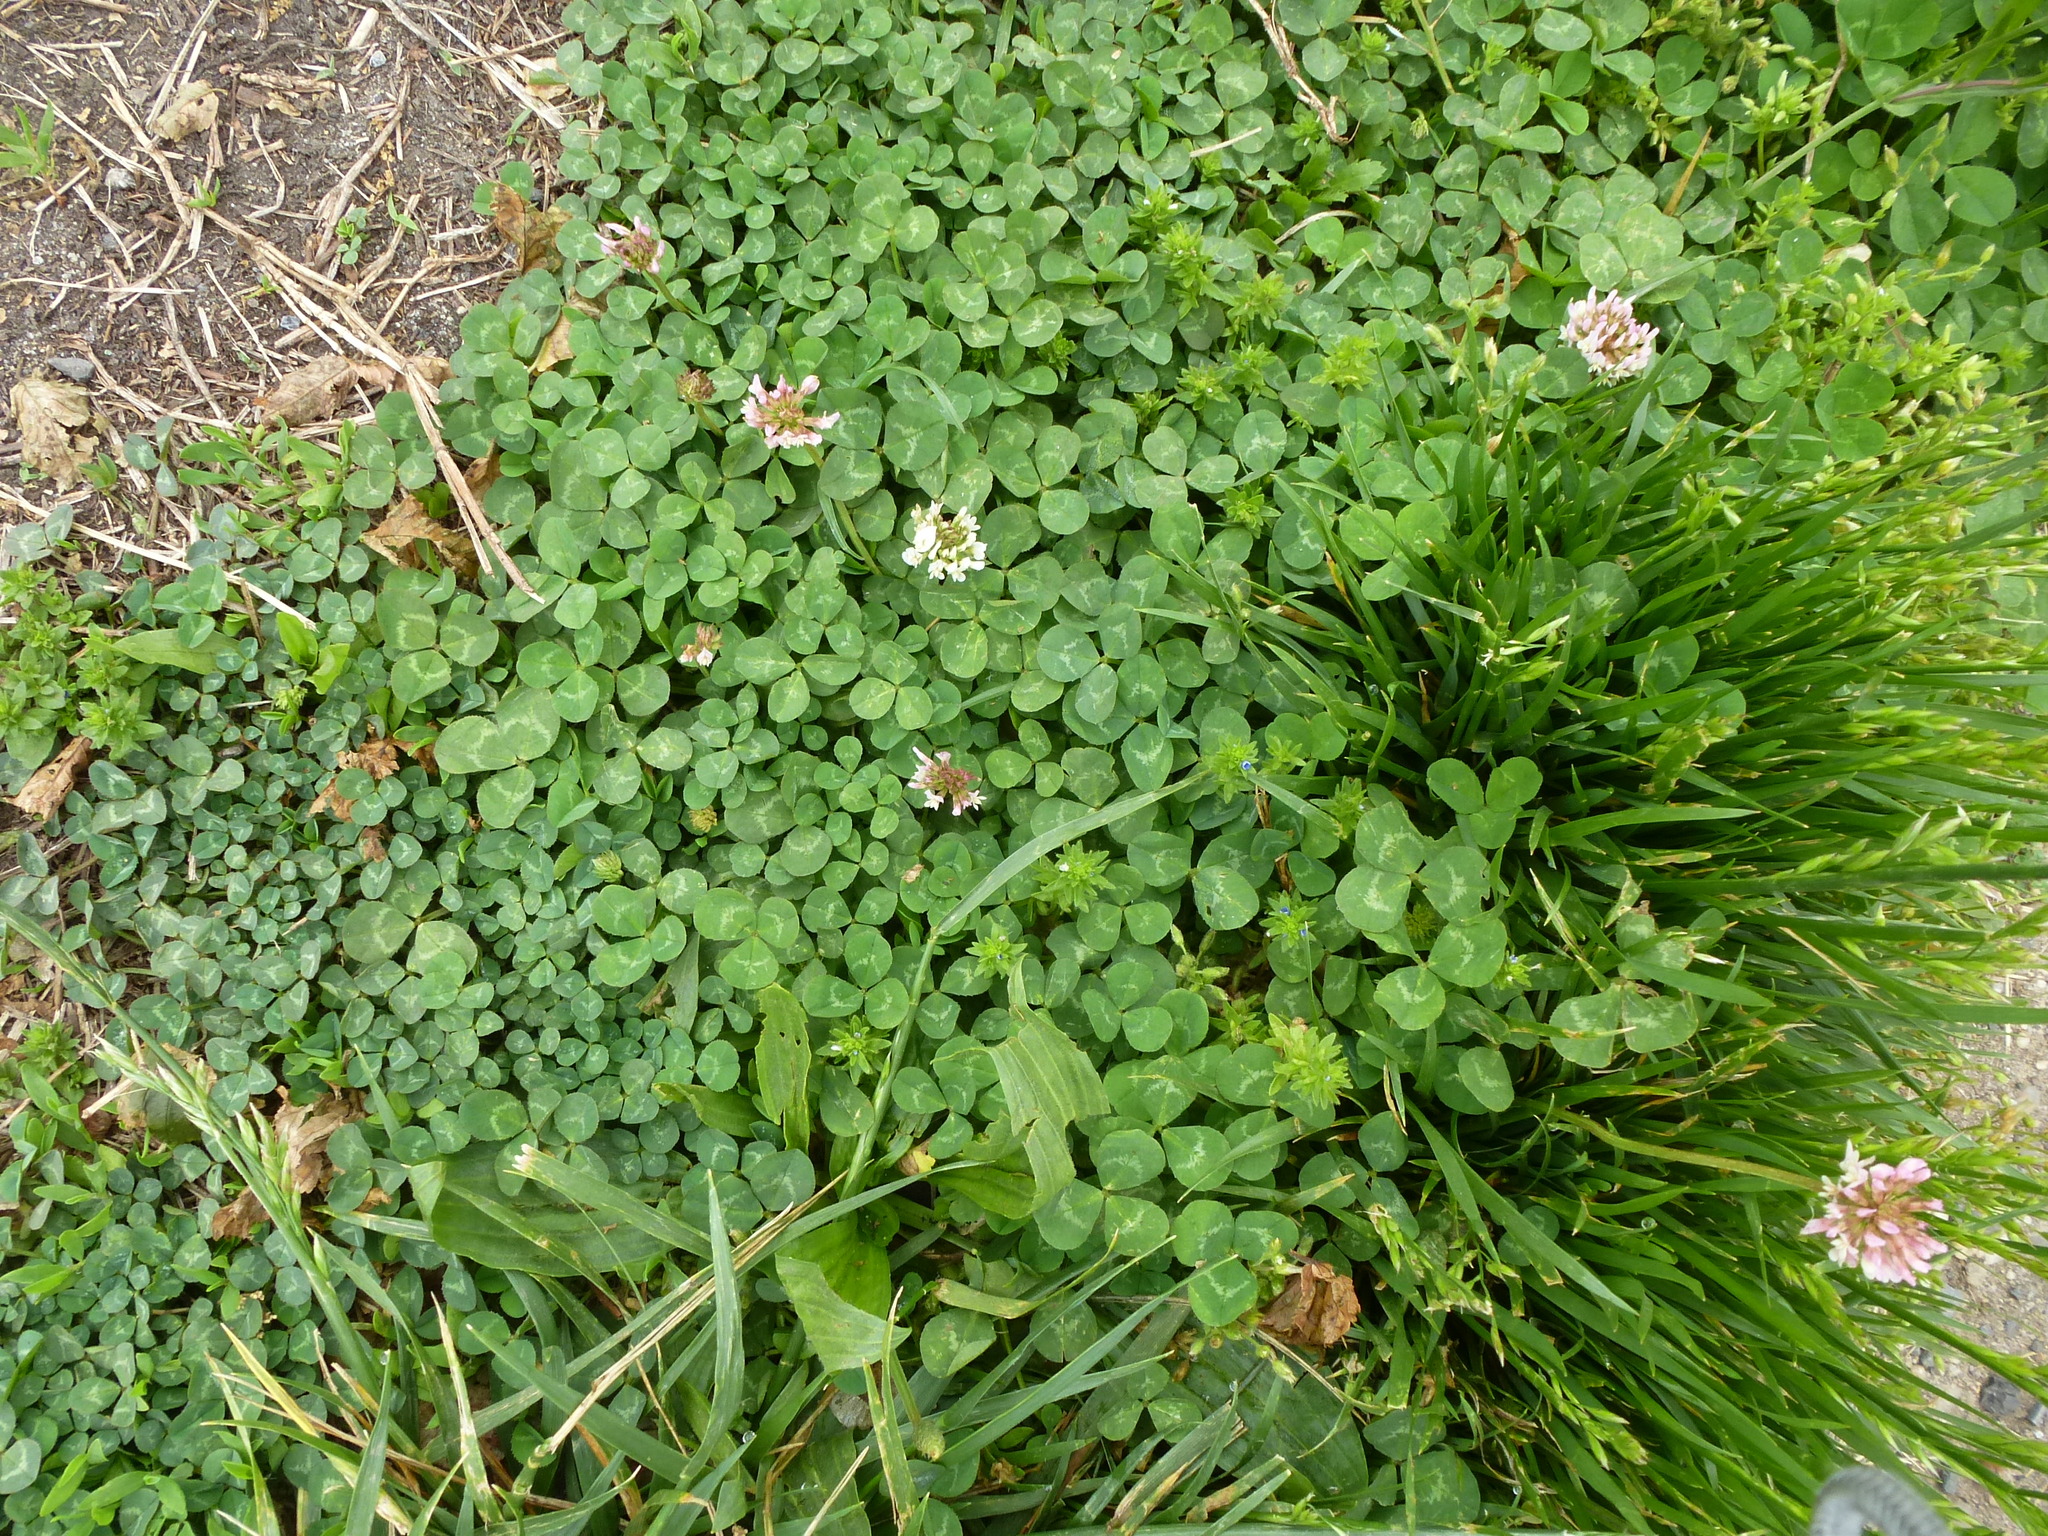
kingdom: Plantae
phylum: Tracheophyta
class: Magnoliopsida
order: Fabales
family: Fabaceae
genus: Trifolium
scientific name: Trifolium repens
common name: White clover
